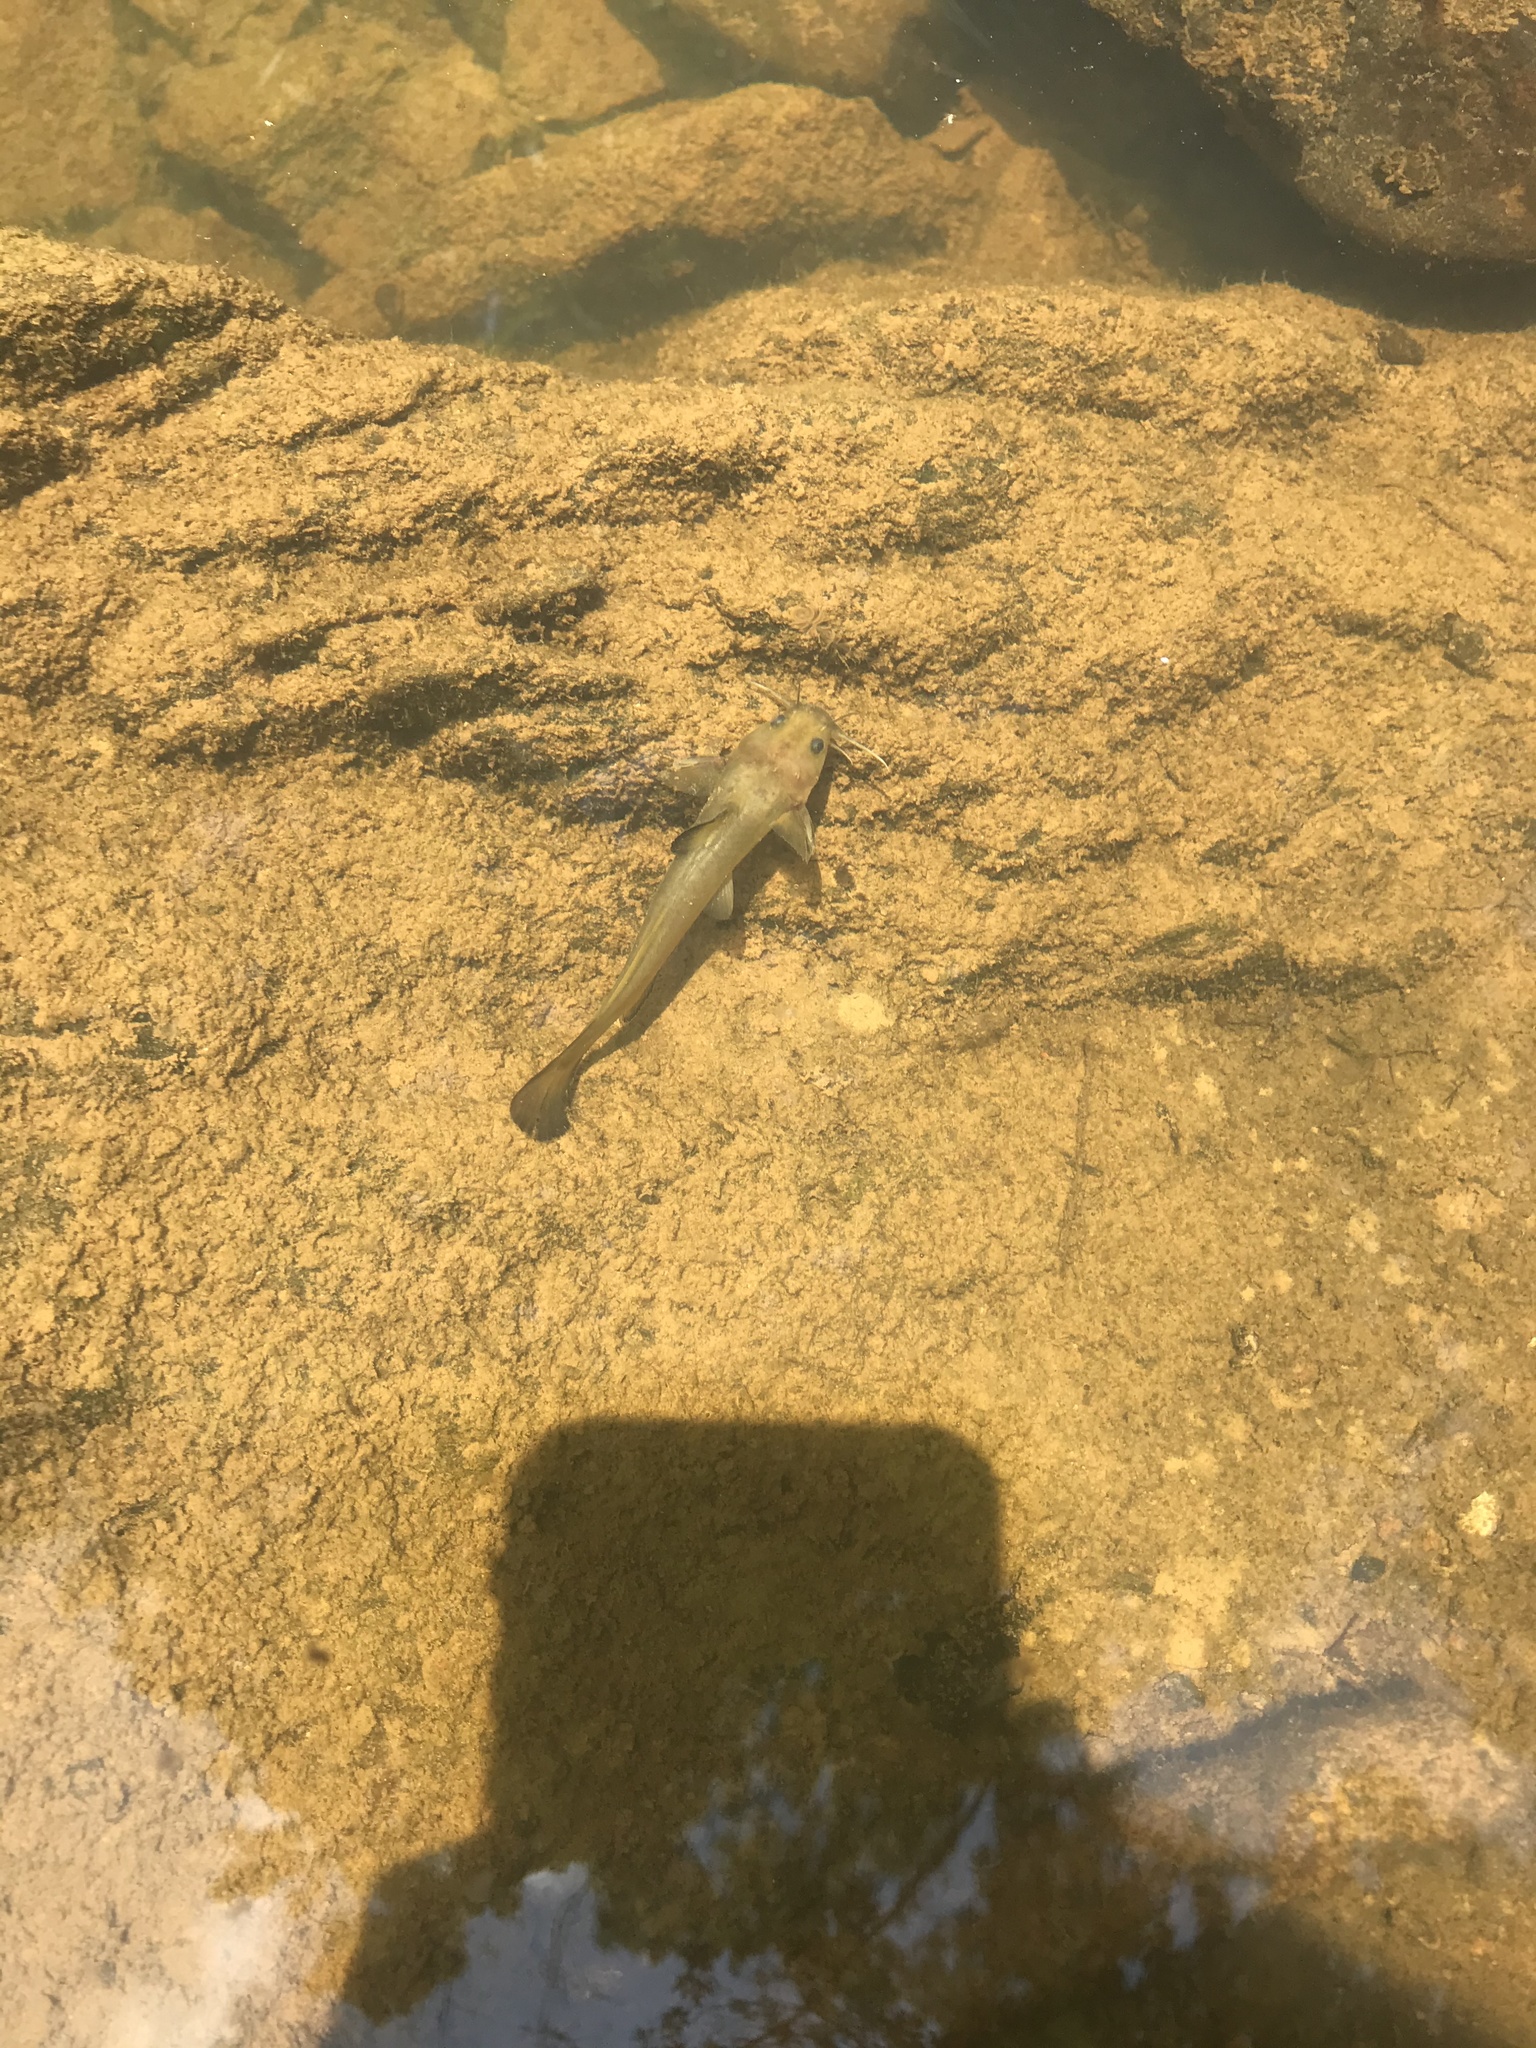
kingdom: Animalia
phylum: Chordata
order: Siluriformes
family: Ictaluridae
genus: Noturus
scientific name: Noturus insignis
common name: Margined madtom
